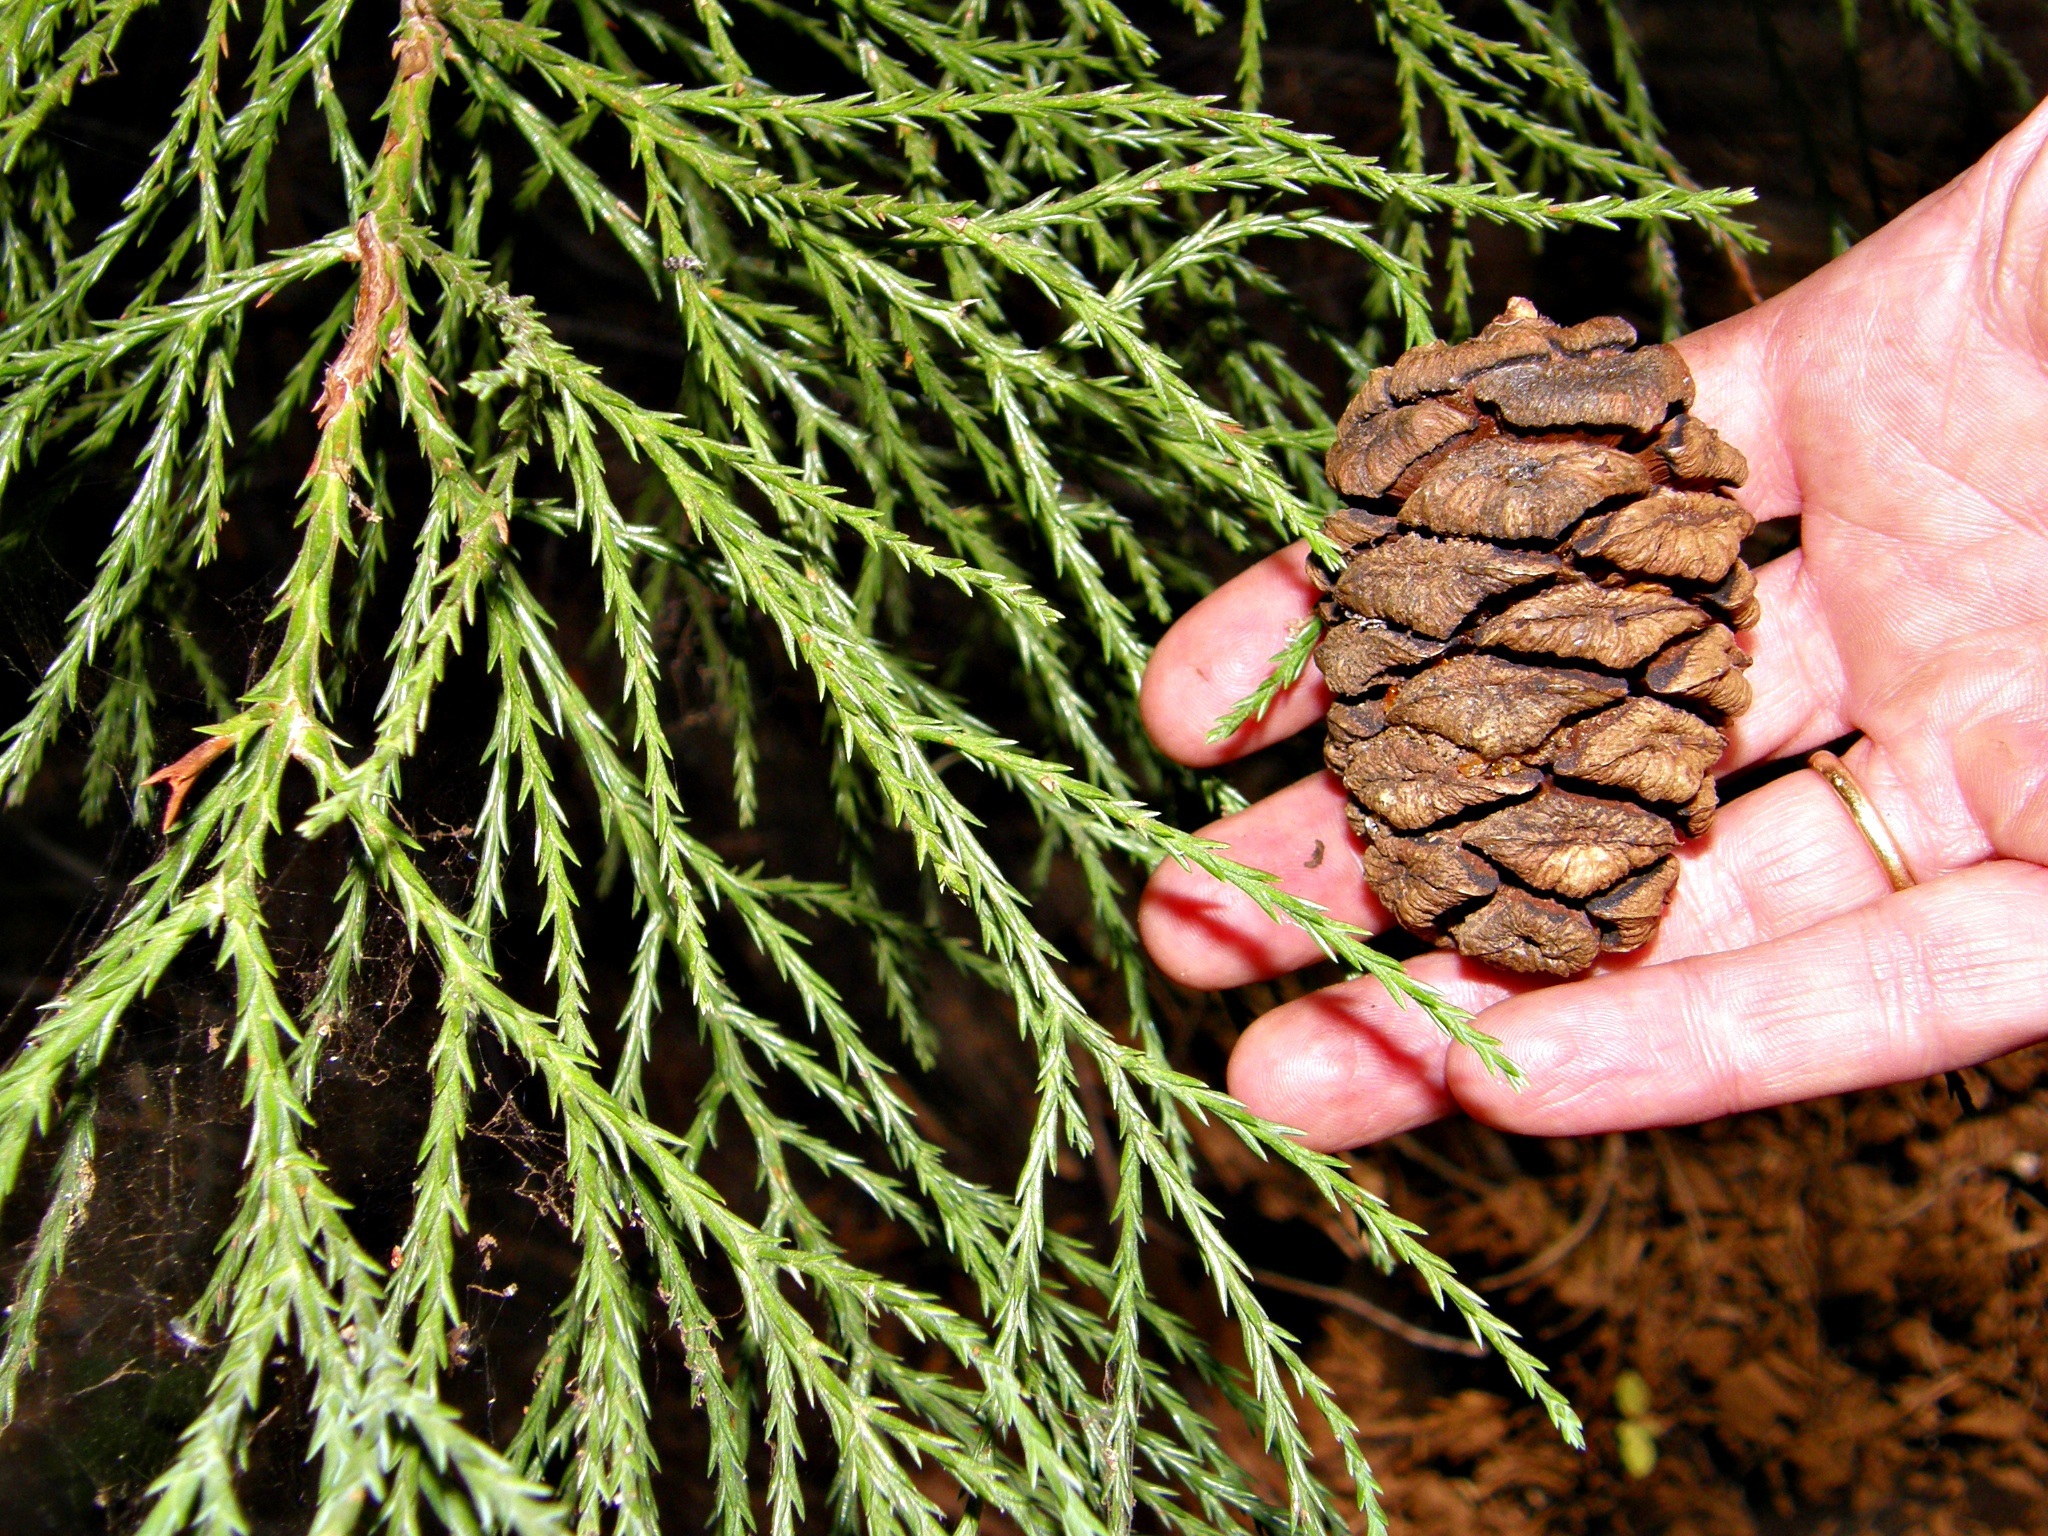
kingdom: Plantae
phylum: Tracheophyta
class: Pinopsida
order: Pinales
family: Cupressaceae
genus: Sequoiadendron
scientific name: Sequoiadendron giganteum
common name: Wellingtonia
